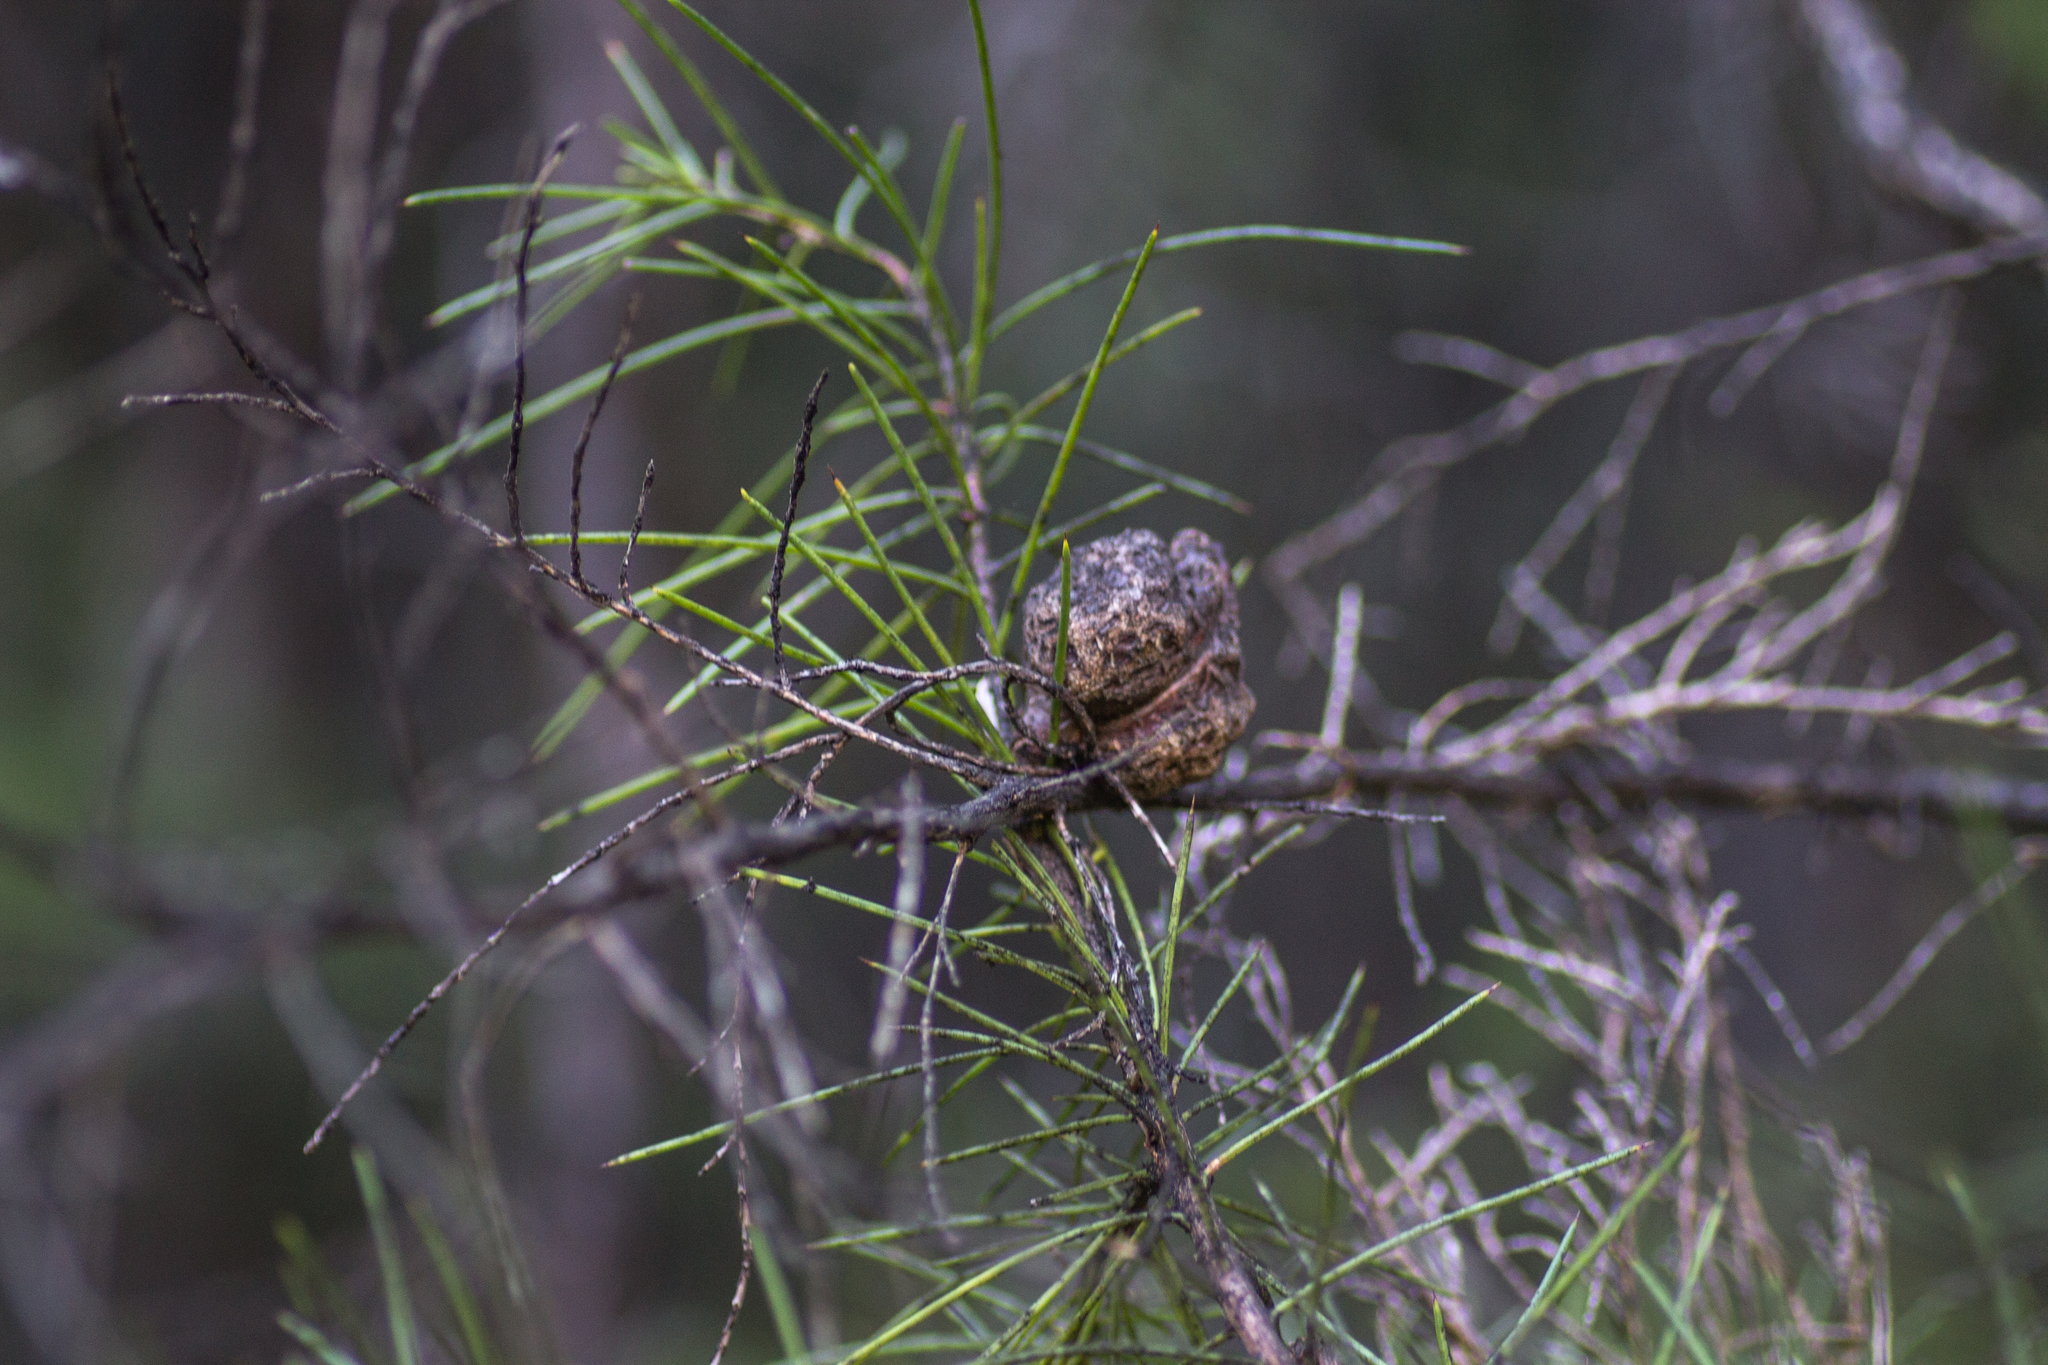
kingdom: Plantae
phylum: Tracheophyta
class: Magnoliopsida
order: Proteales
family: Proteaceae
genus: Hakea
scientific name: Hakea sericea
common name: Needle bush
